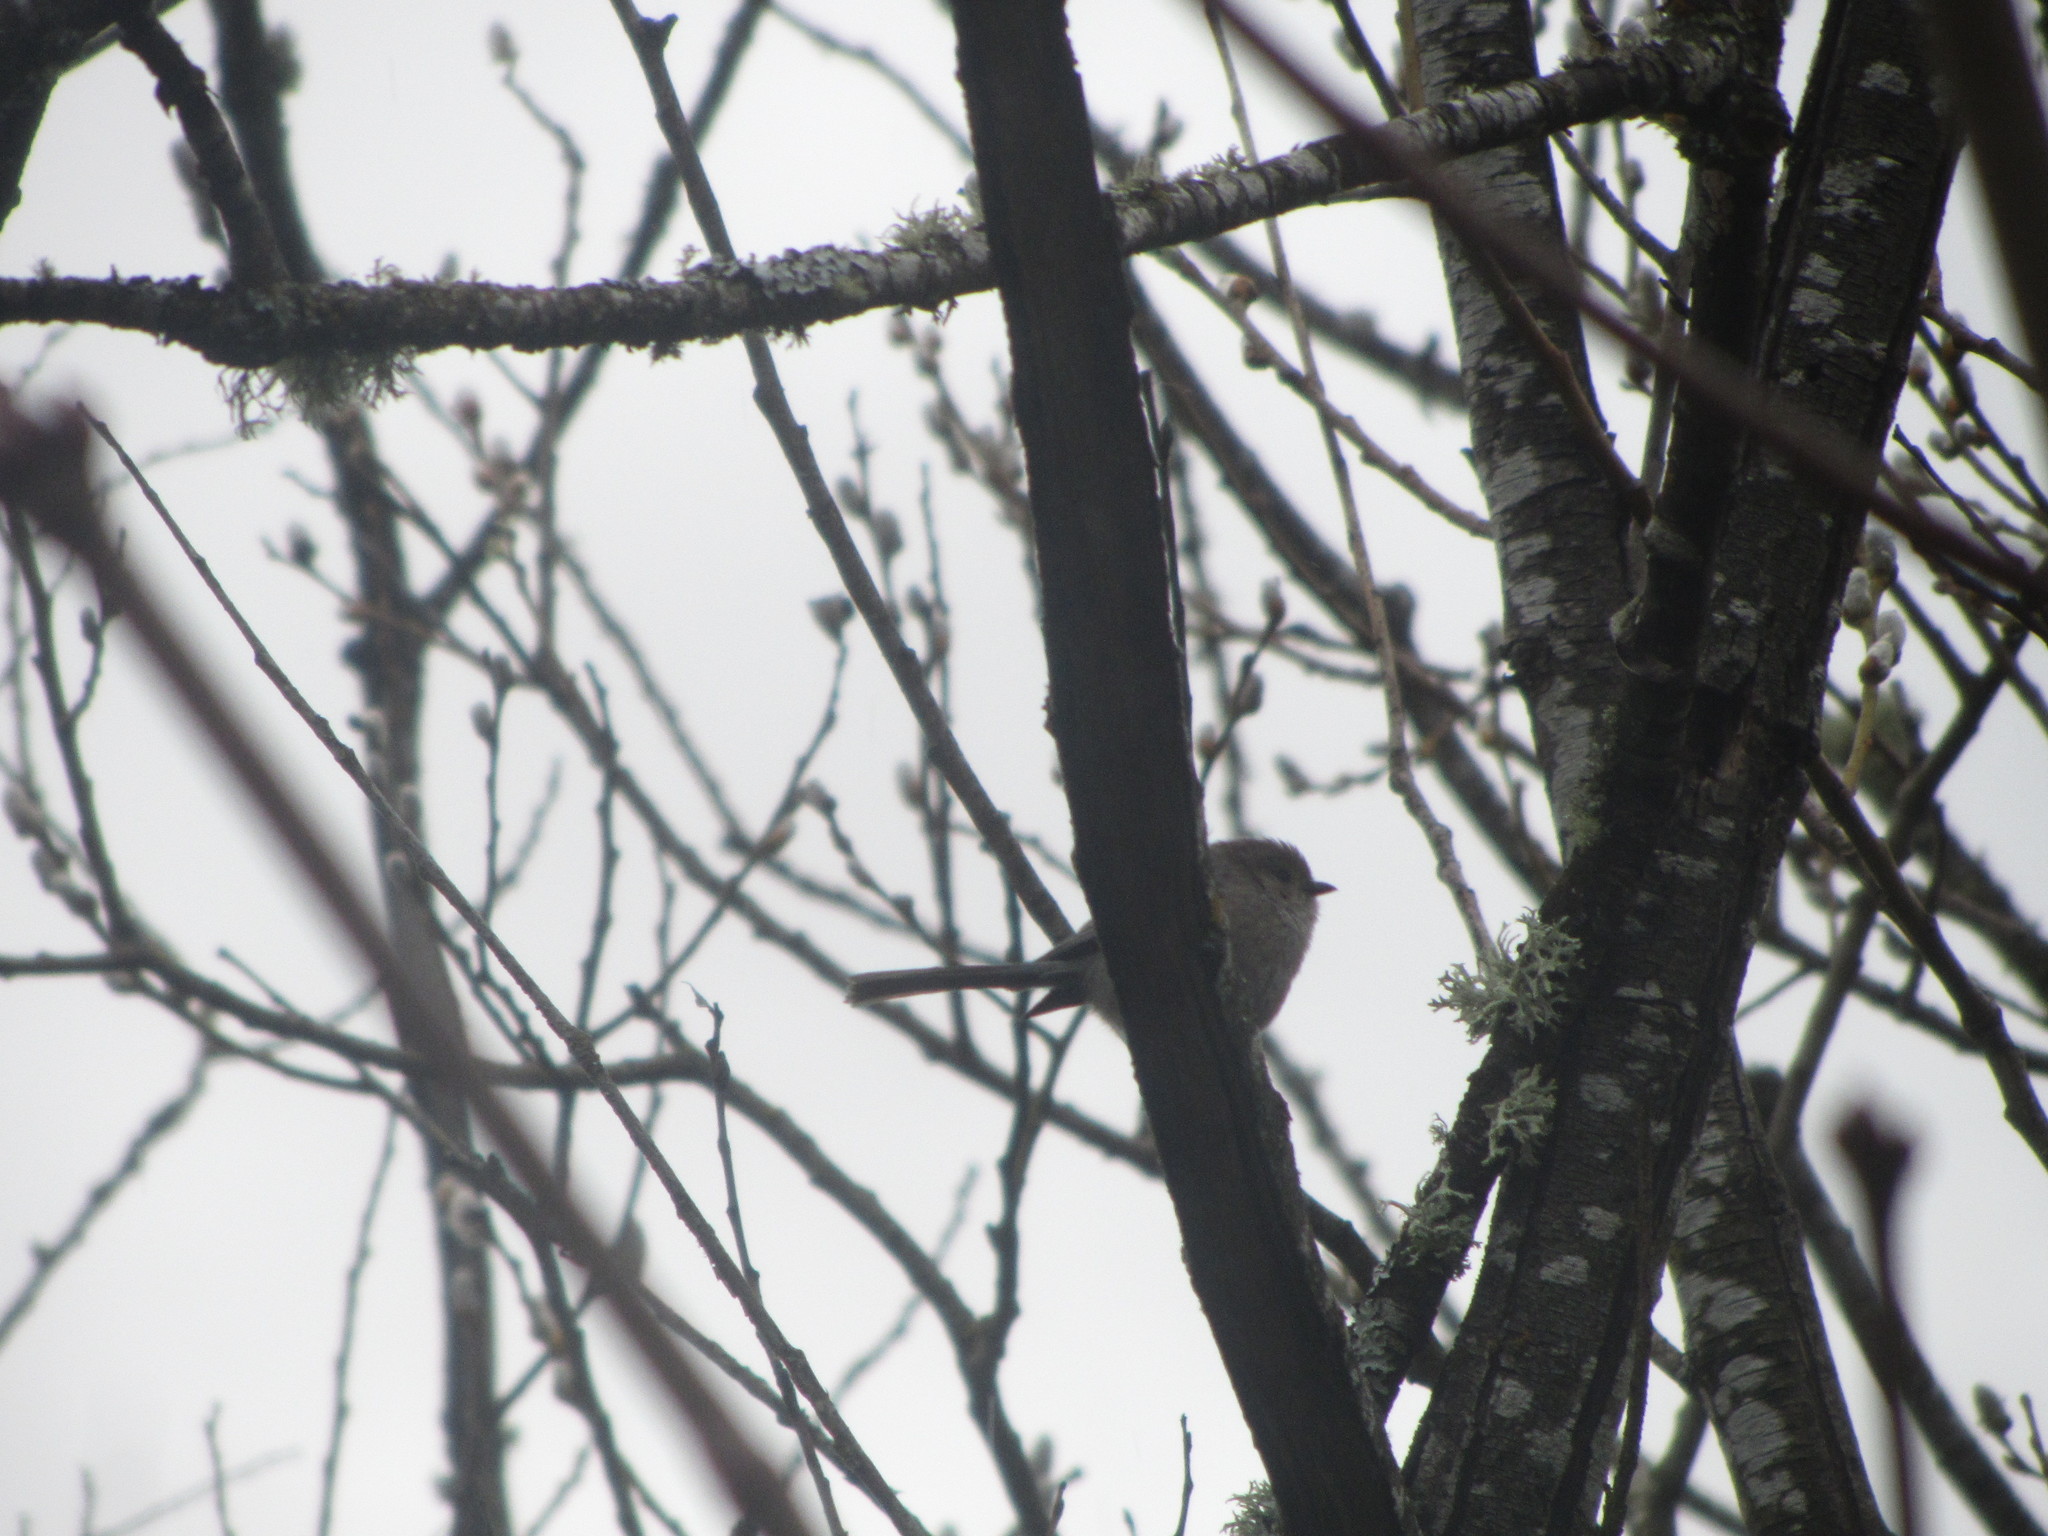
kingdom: Animalia
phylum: Chordata
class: Aves
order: Passeriformes
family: Aegithalidae
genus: Psaltriparus
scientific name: Psaltriparus minimus
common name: American bushtit
